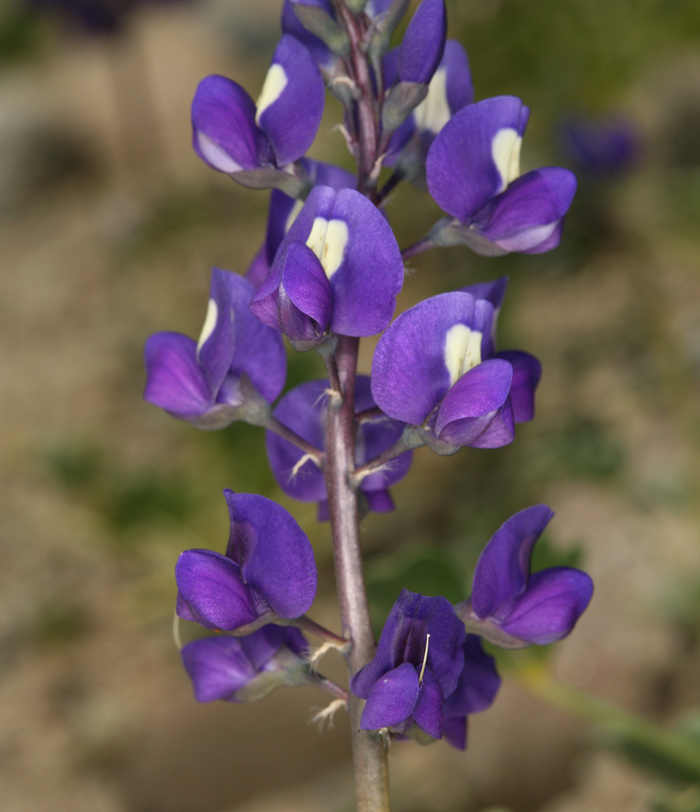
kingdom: Plantae
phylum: Tracheophyta
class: Magnoliopsida
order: Fabales
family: Fabaceae
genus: Lupinus
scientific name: Lupinus
